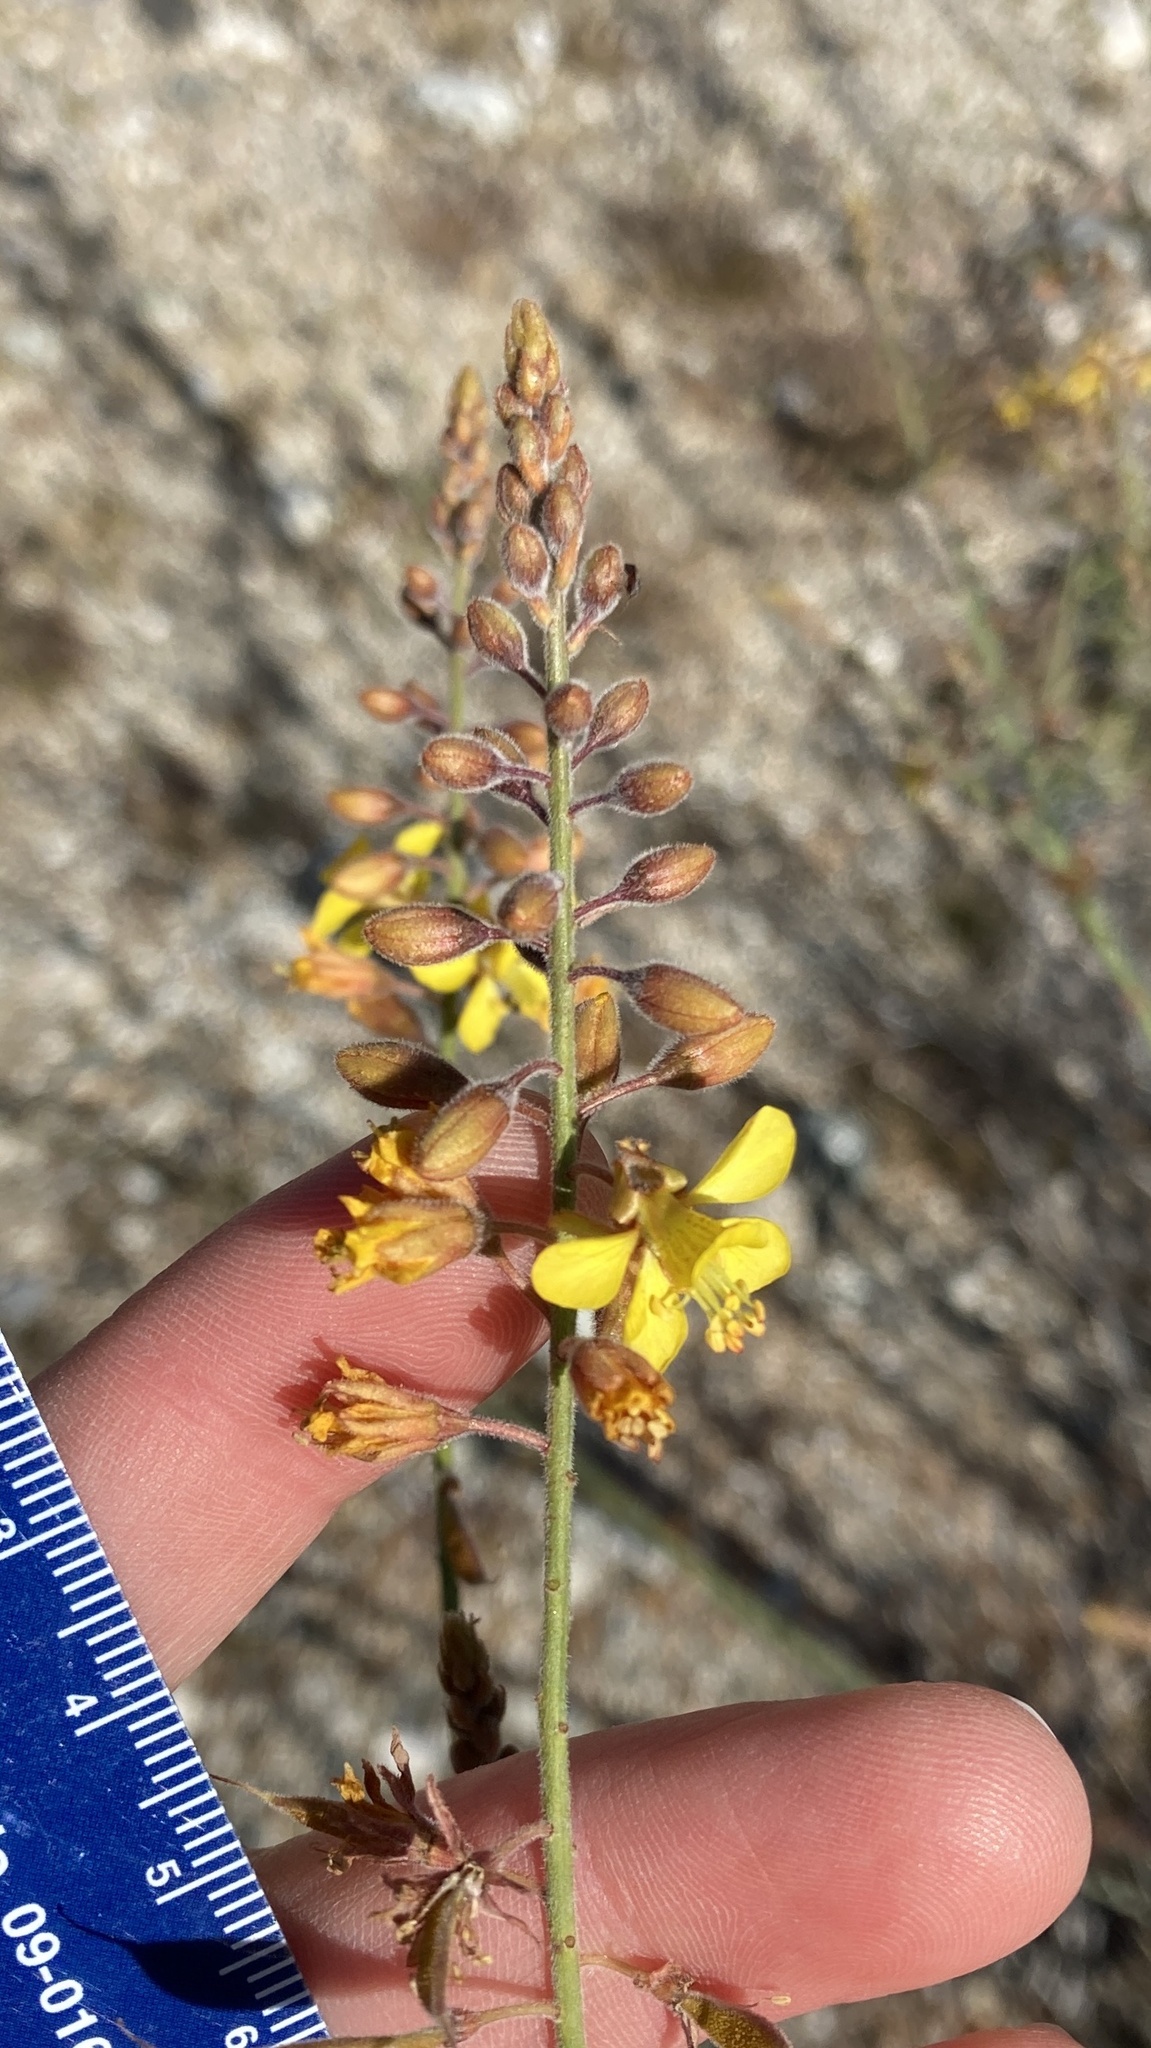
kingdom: Plantae
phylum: Tracheophyta
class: Magnoliopsida
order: Fabales
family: Fabaceae
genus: Hoffmannseggia
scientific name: Hoffmannseggia microphylla
